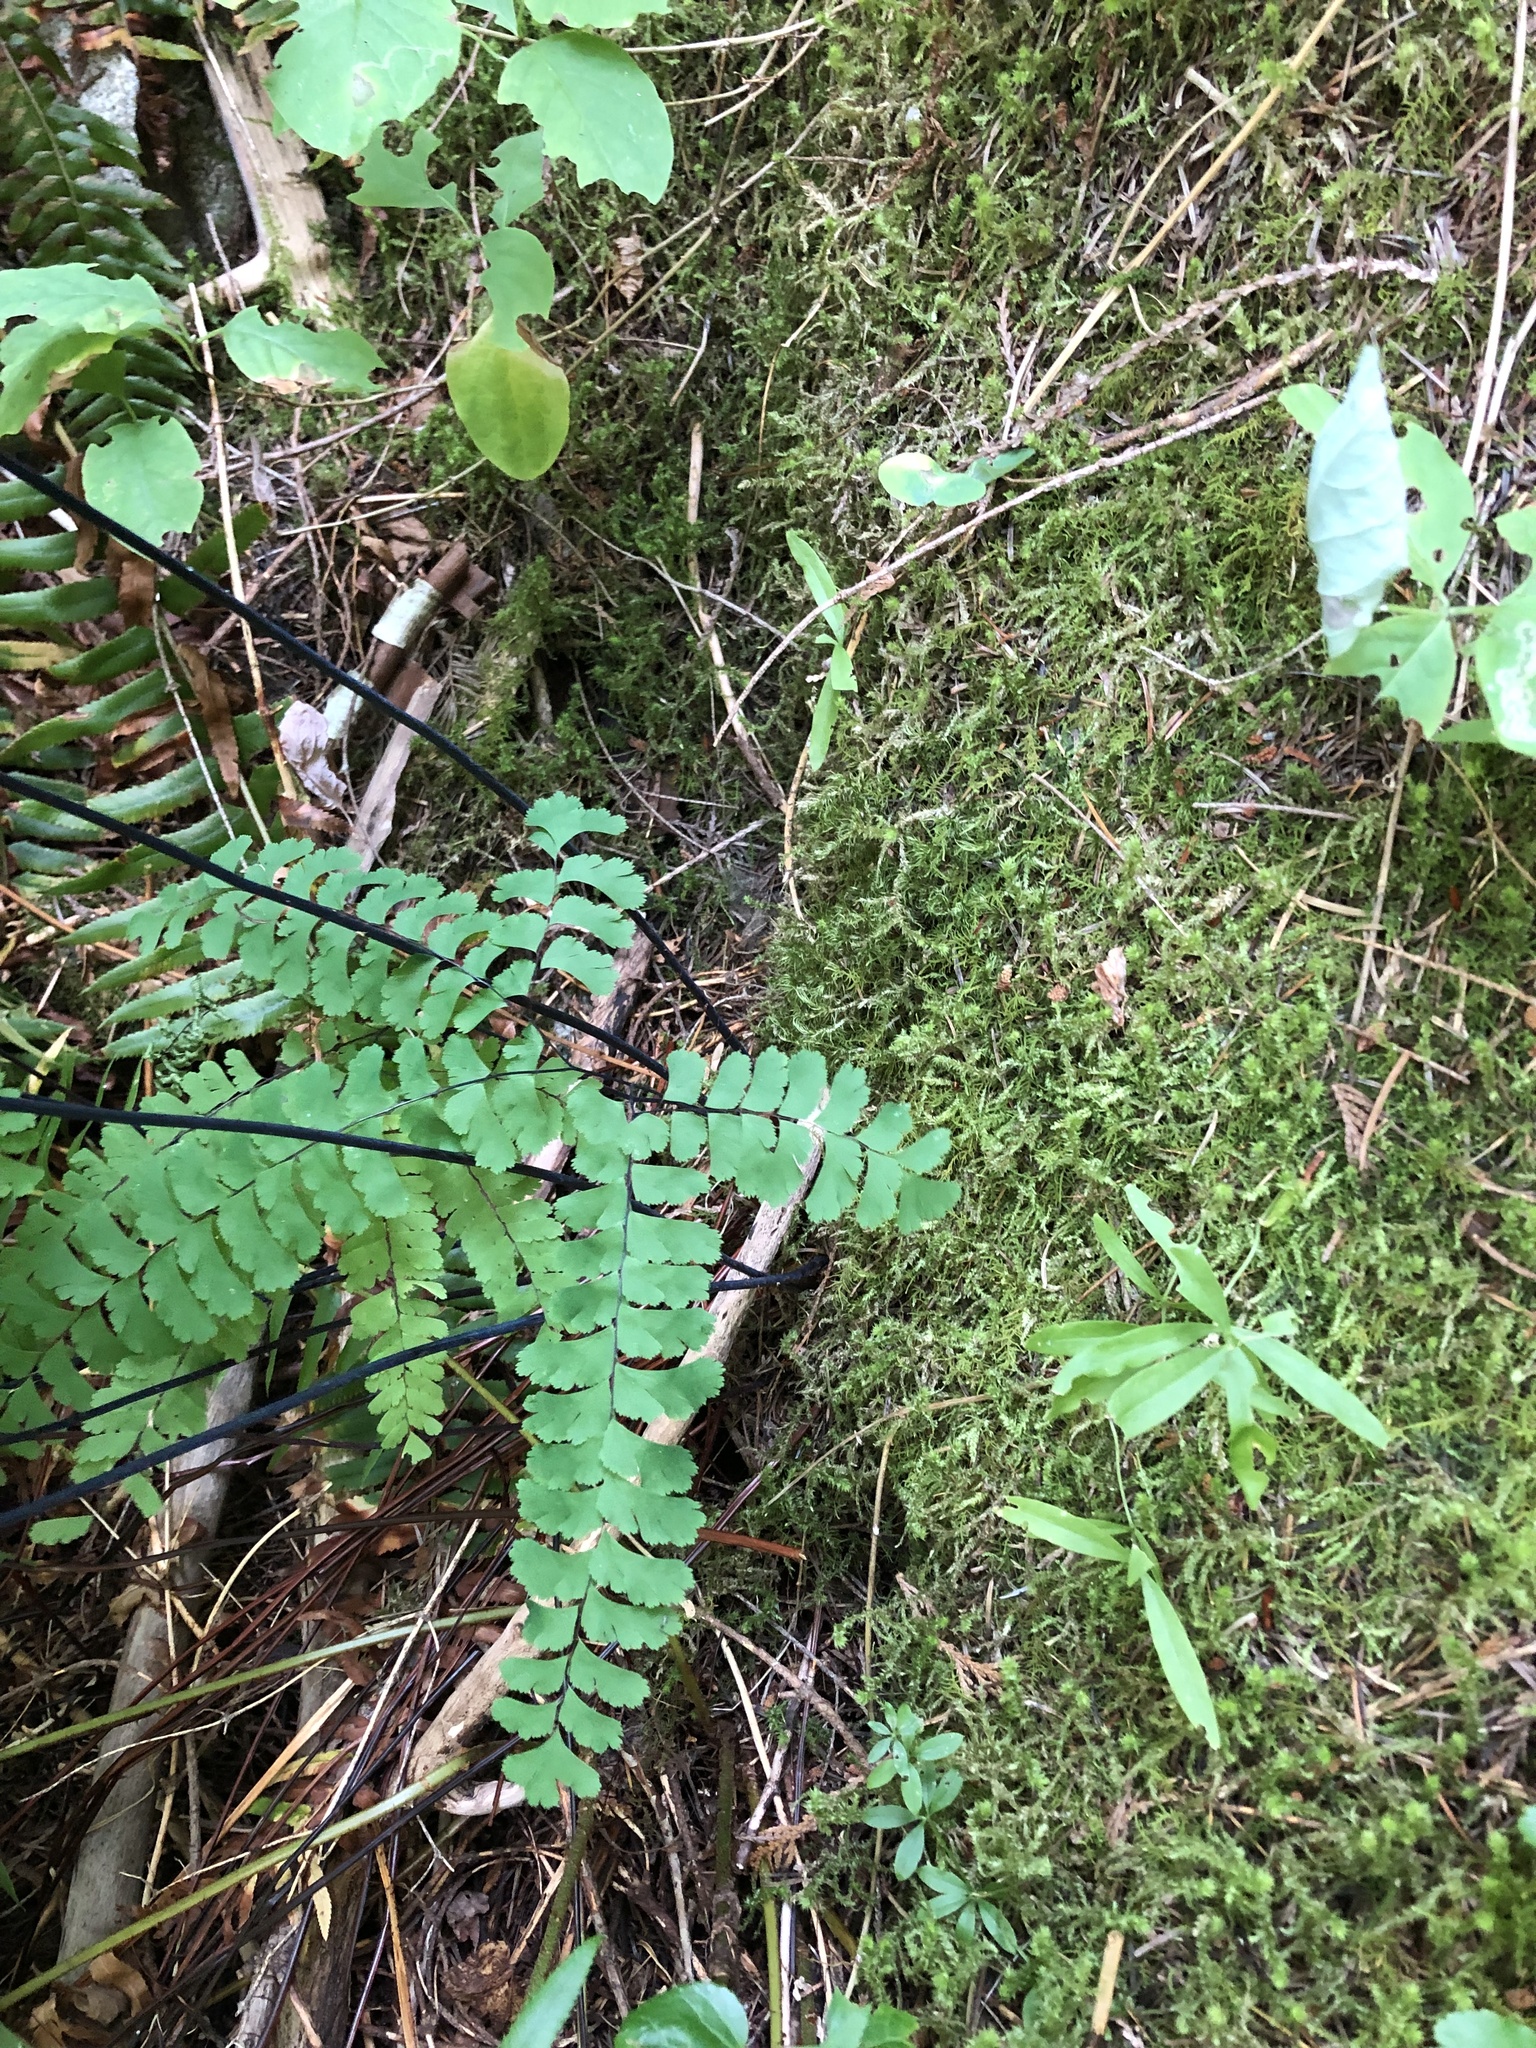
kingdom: Plantae
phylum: Tracheophyta
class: Polypodiopsida
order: Polypodiales
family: Pteridaceae
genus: Adiantum
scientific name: Adiantum aleuticum
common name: Aleutian maidenhair fern
